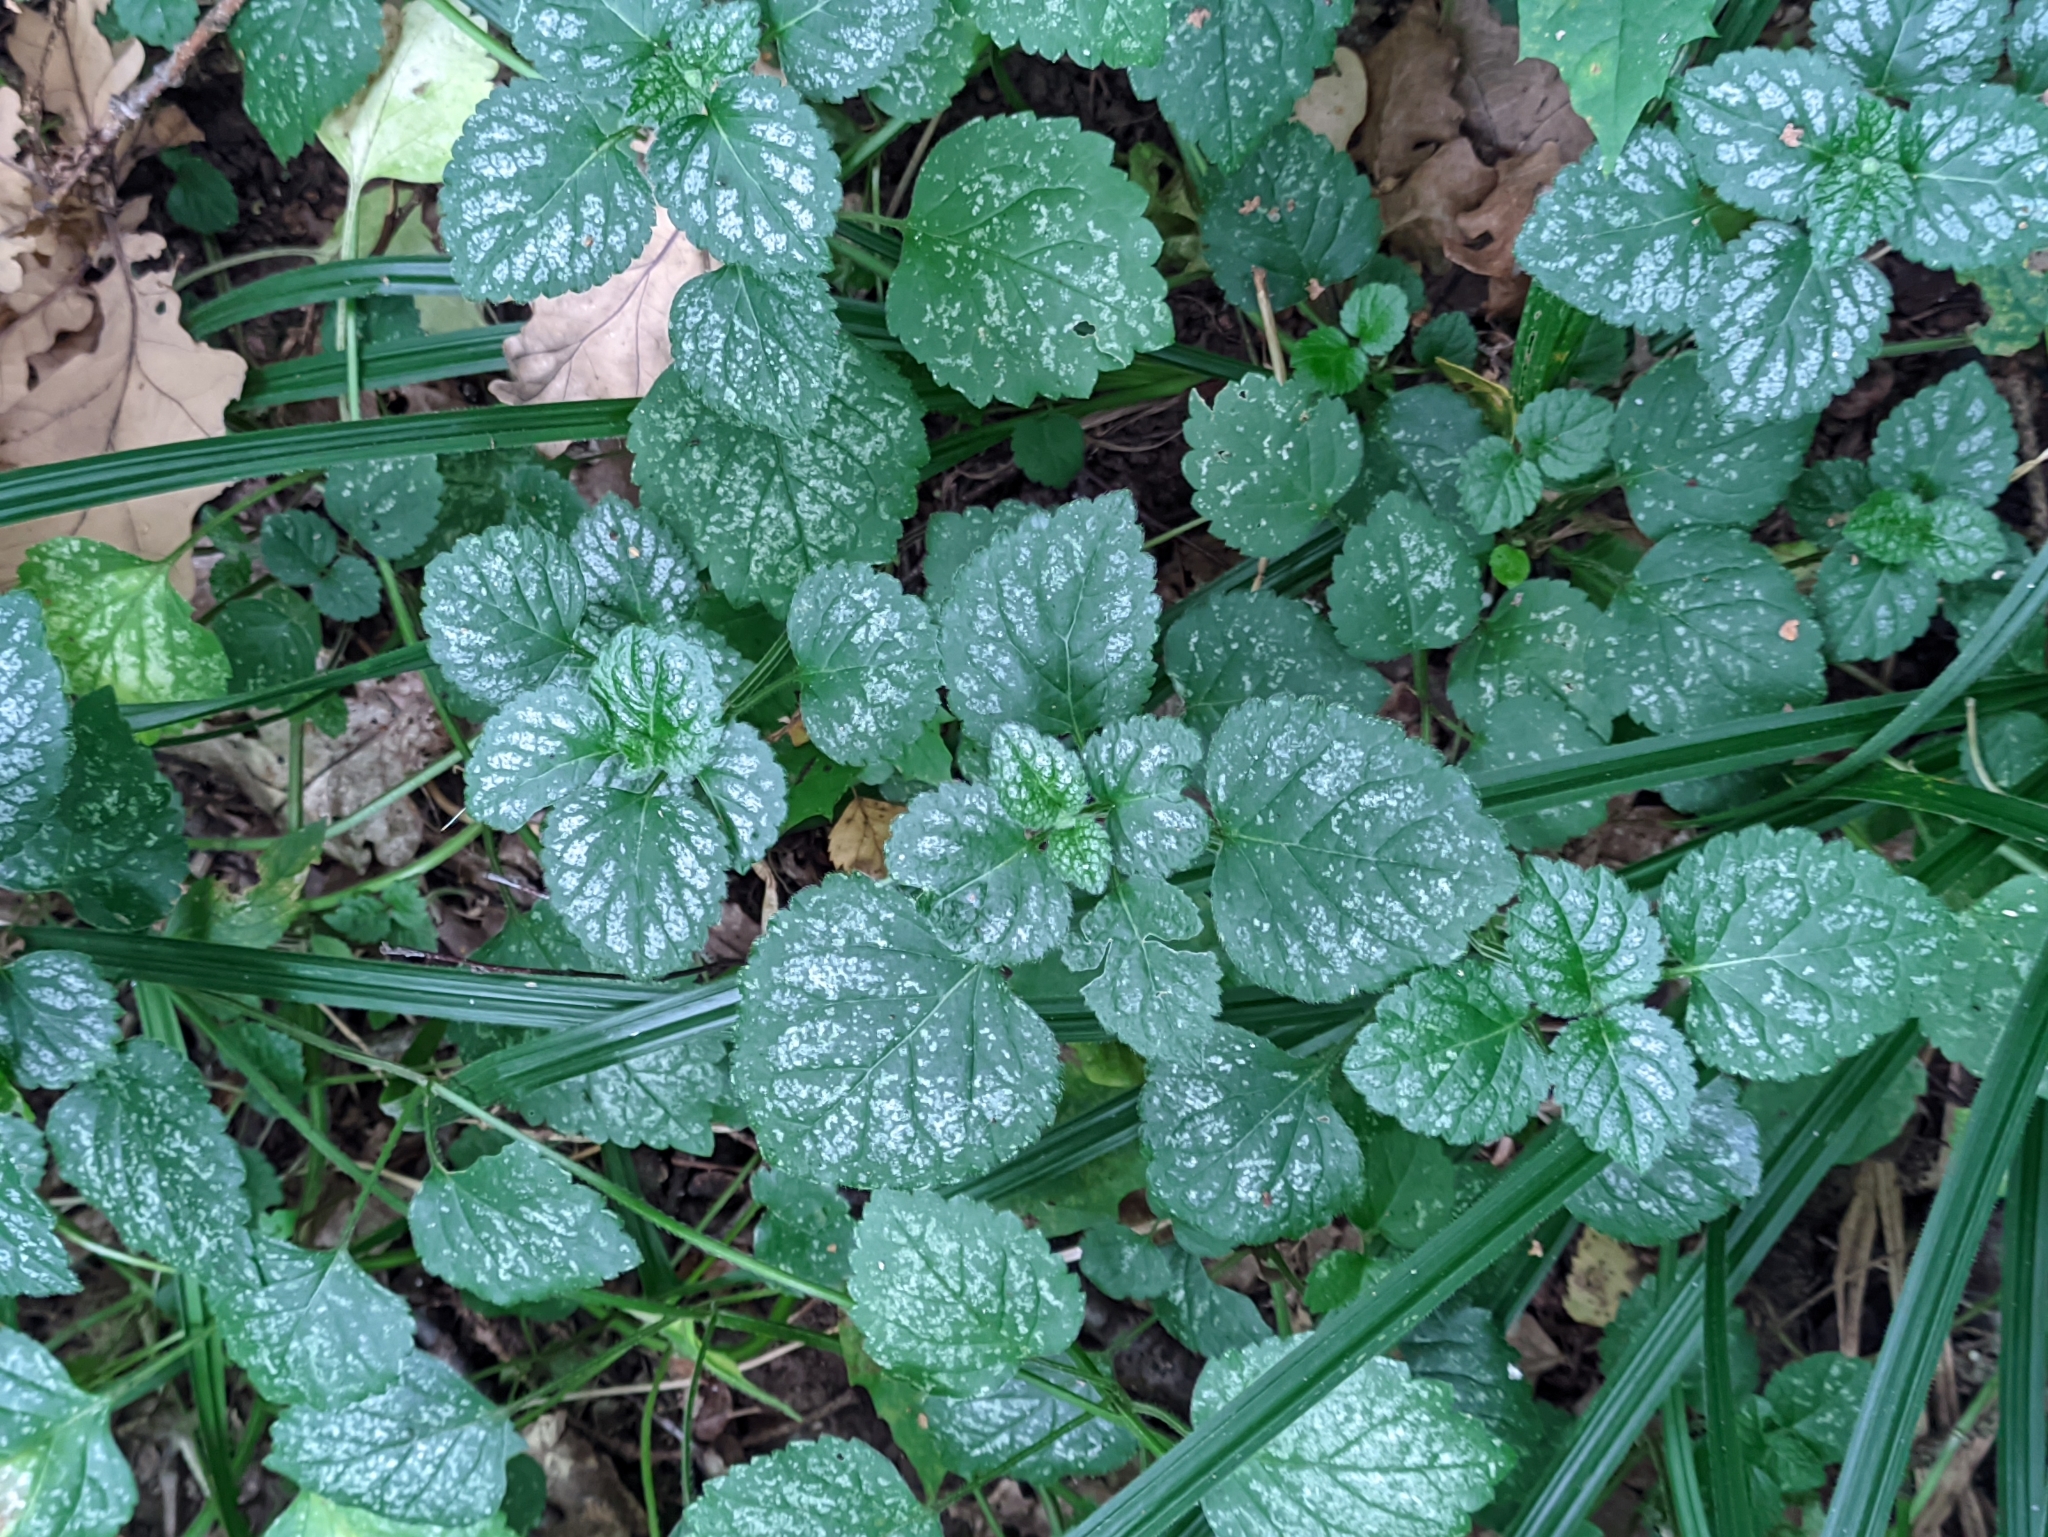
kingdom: Plantae
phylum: Tracheophyta
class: Magnoliopsida
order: Lamiales
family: Lamiaceae
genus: Lamium
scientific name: Lamium galeobdolon
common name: Yellow archangel
